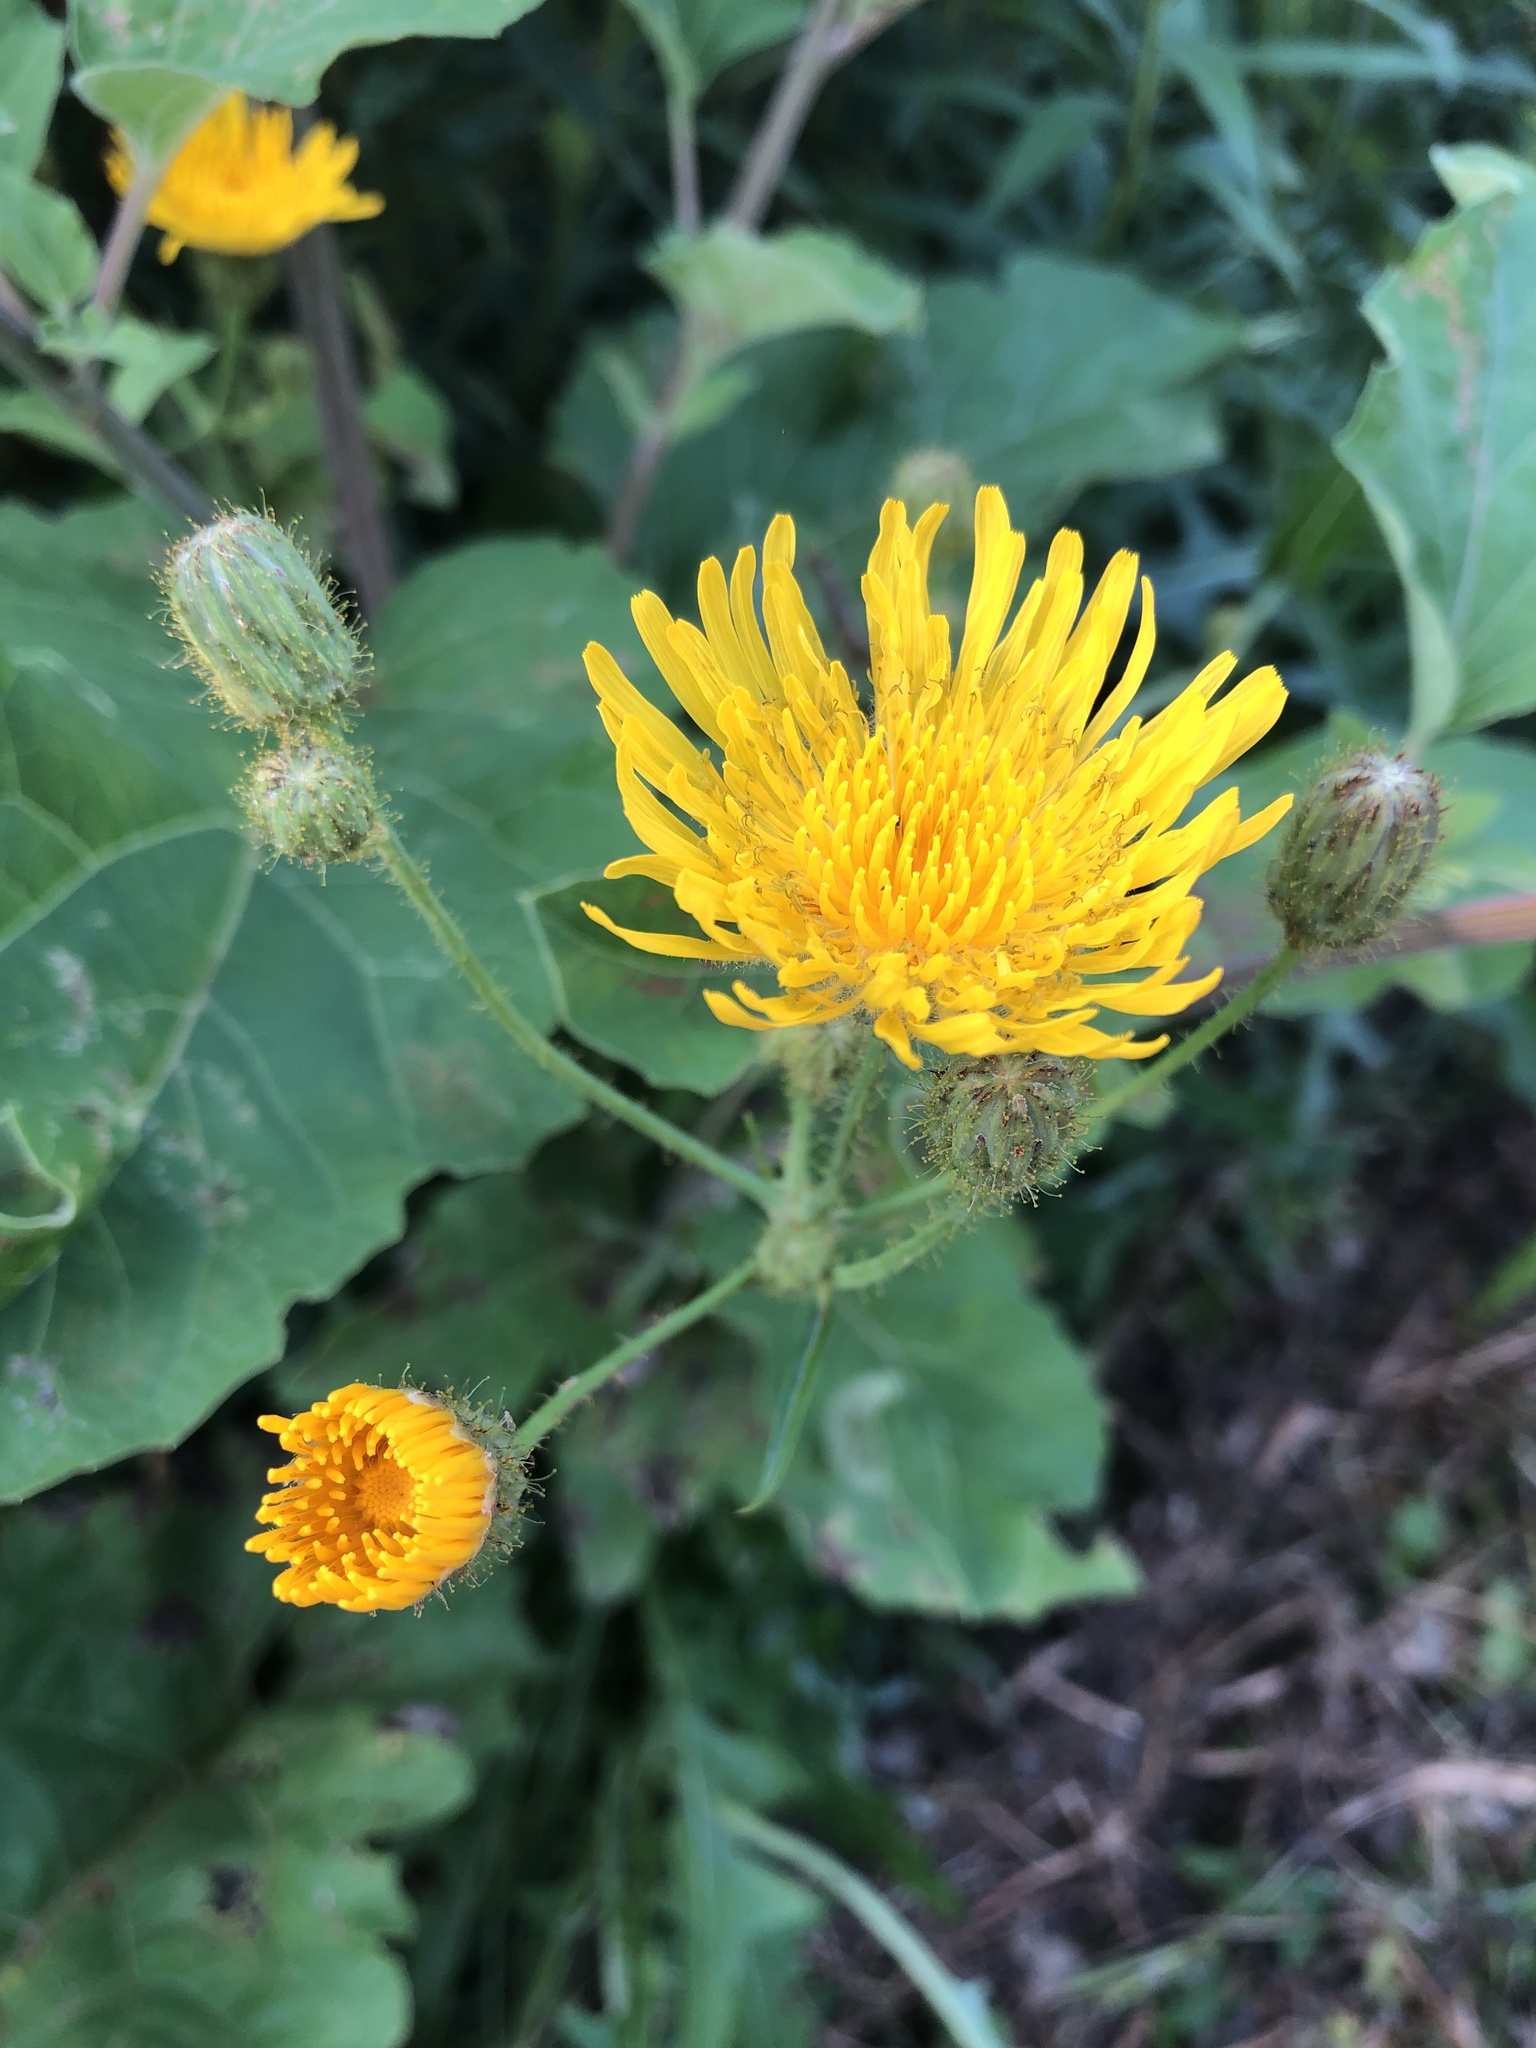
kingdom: Plantae
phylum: Tracheophyta
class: Magnoliopsida
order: Asterales
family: Asteraceae
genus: Sonchus
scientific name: Sonchus arvensis
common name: Perennial sow-thistle
